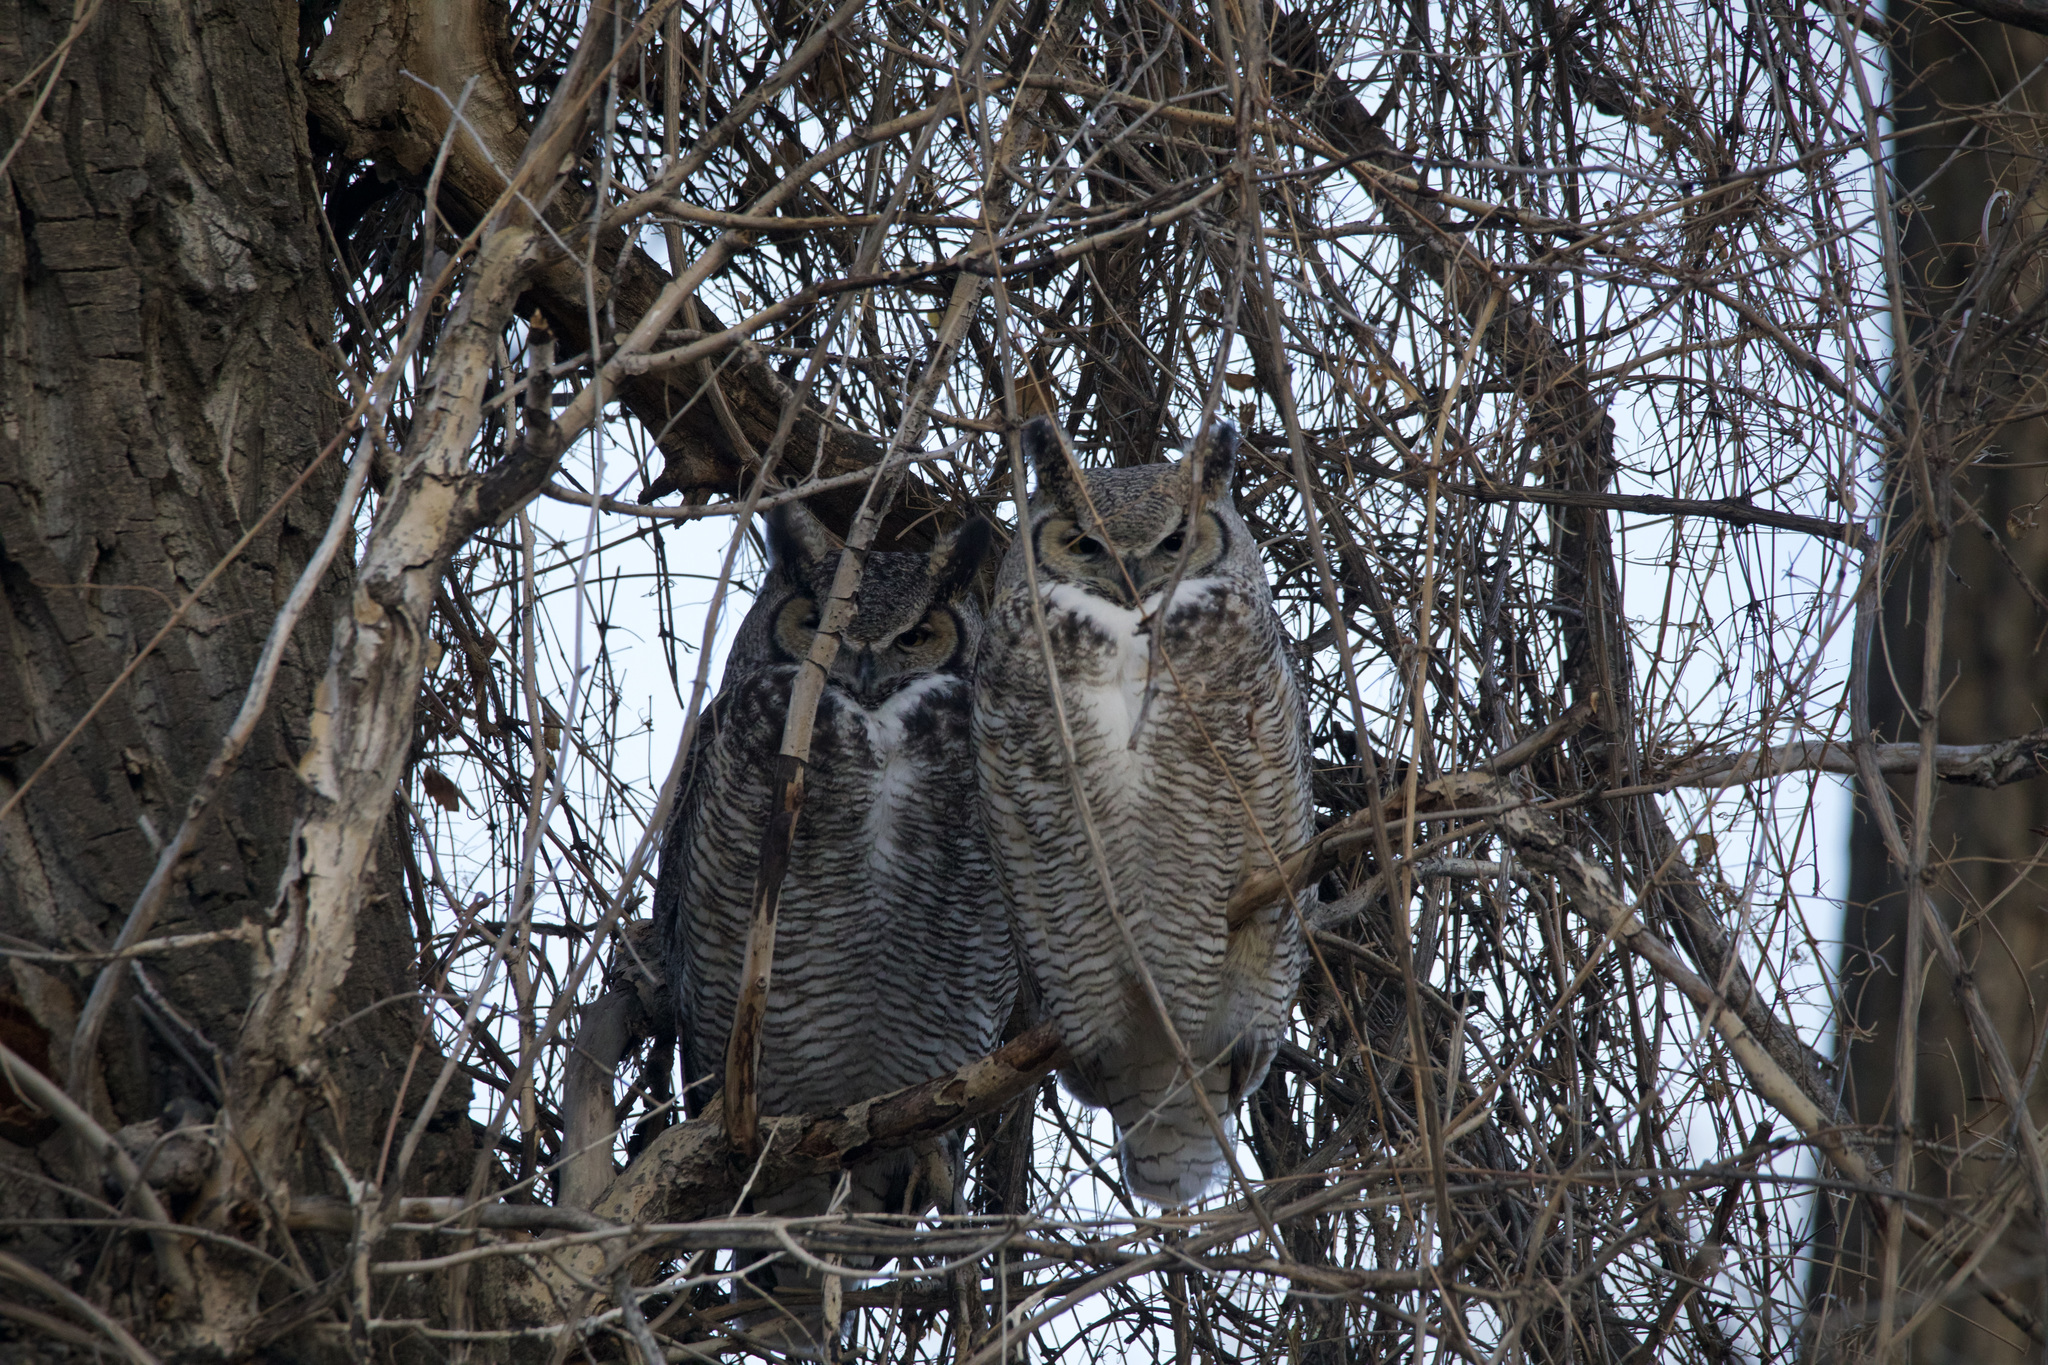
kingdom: Animalia
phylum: Chordata
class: Aves
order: Strigiformes
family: Strigidae
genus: Bubo
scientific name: Bubo virginianus
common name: Great horned owl
